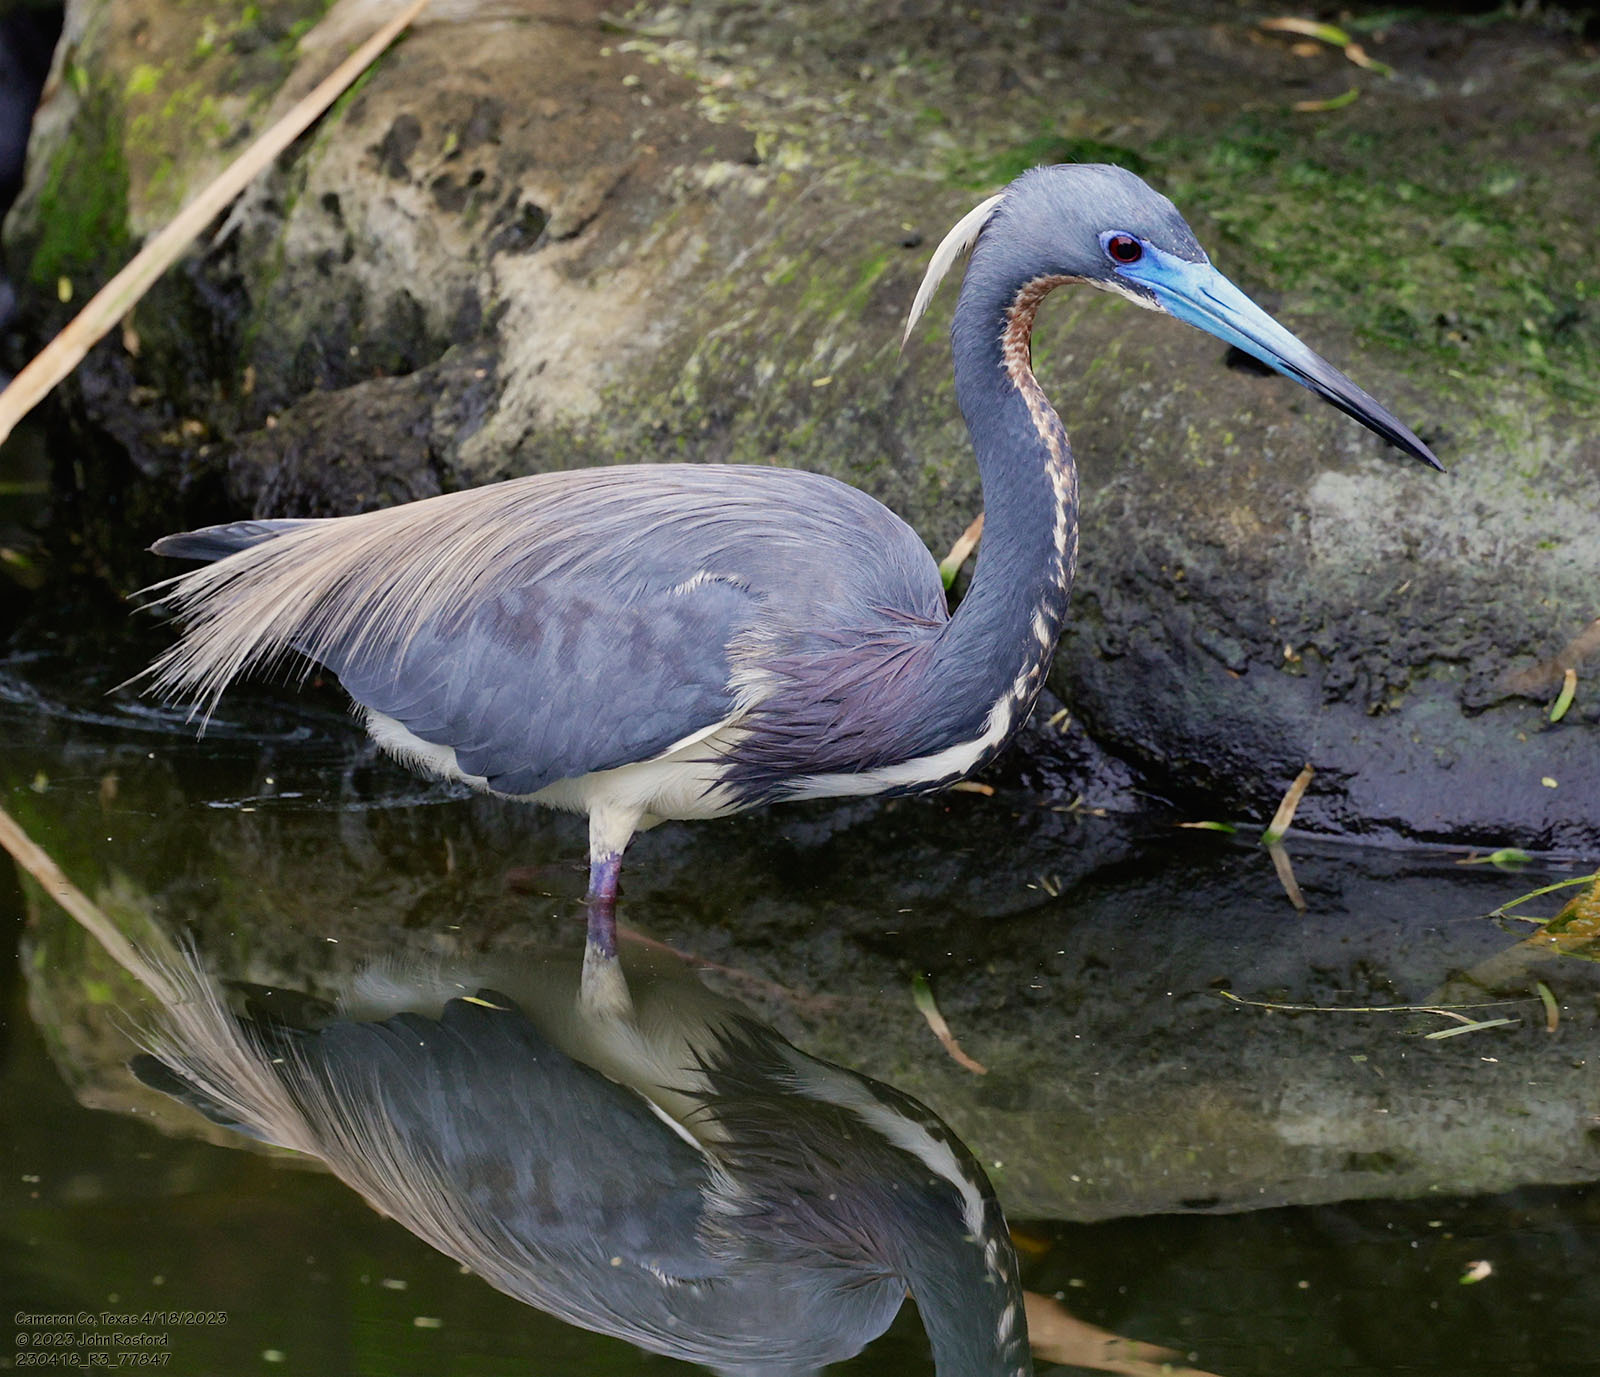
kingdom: Animalia
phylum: Chordata
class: Aves
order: Pelecaniformes
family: Ardeidae
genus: Egretta
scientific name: Egretta tricolor
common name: Tricolored heron
